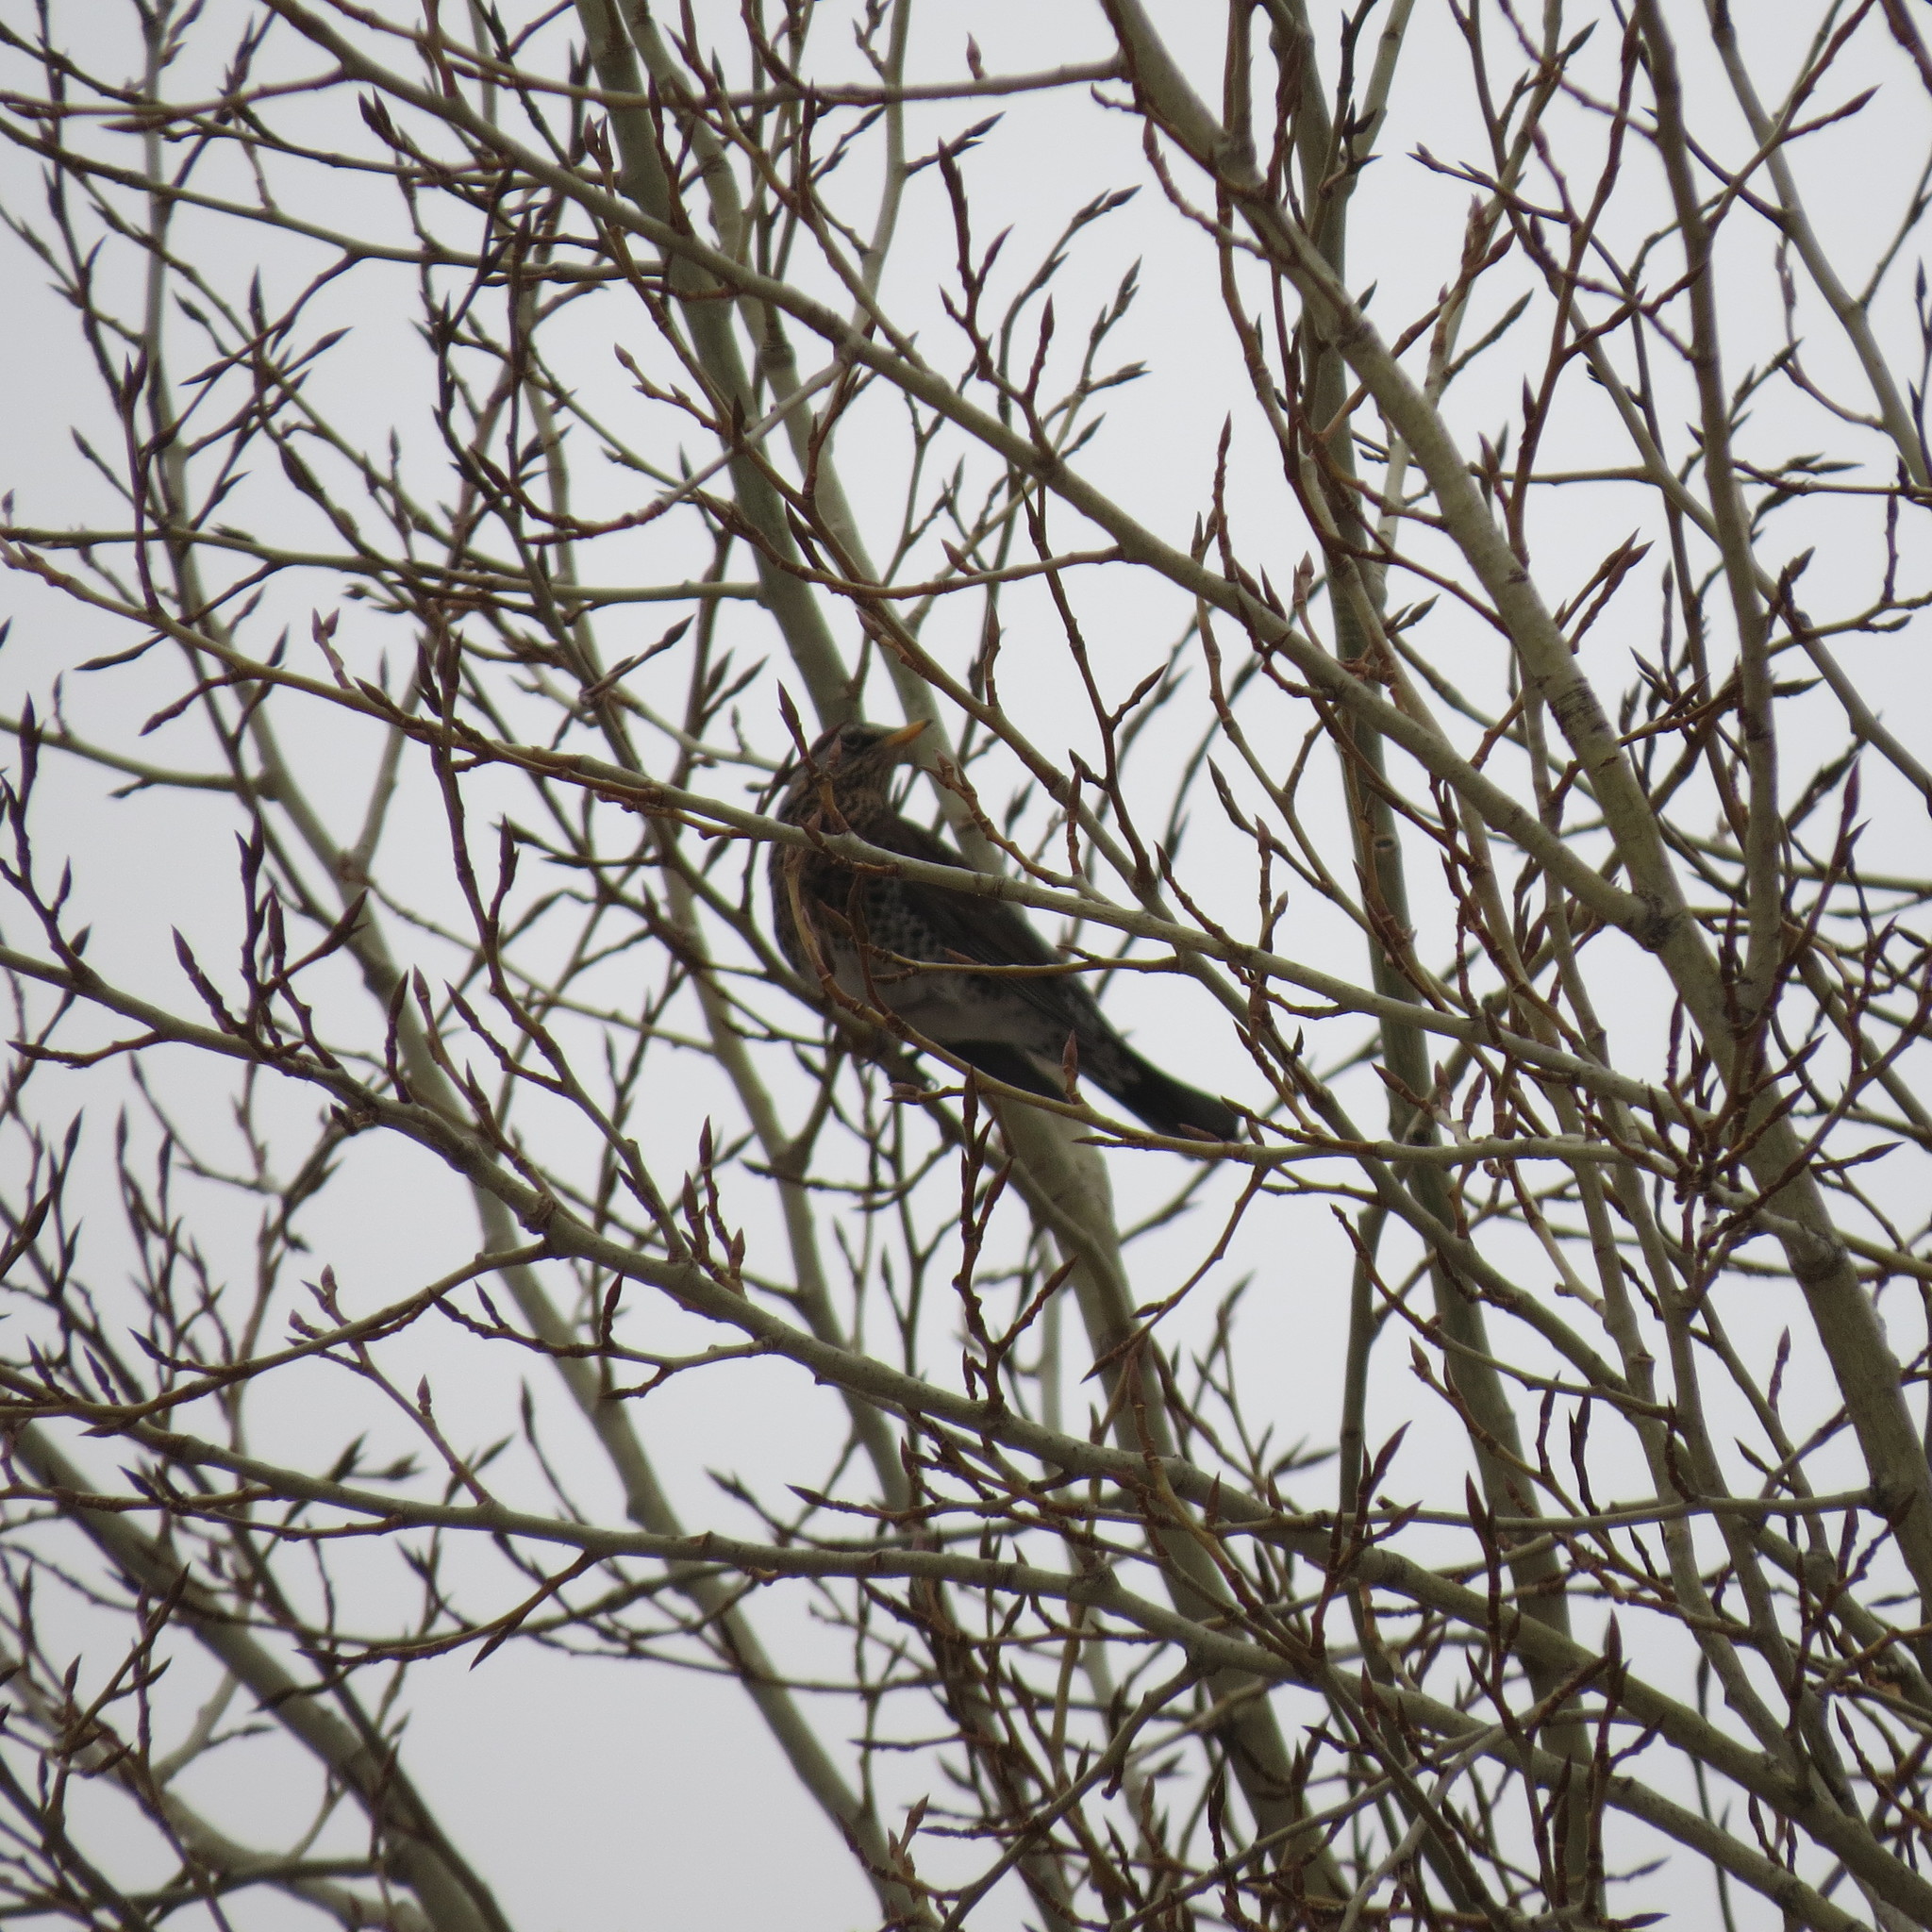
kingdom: Animalia
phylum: Chordata
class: Aves
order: Passeriformes
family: Turdidae
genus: Turdus
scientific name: Turdus pilaris
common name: Fieldfare
